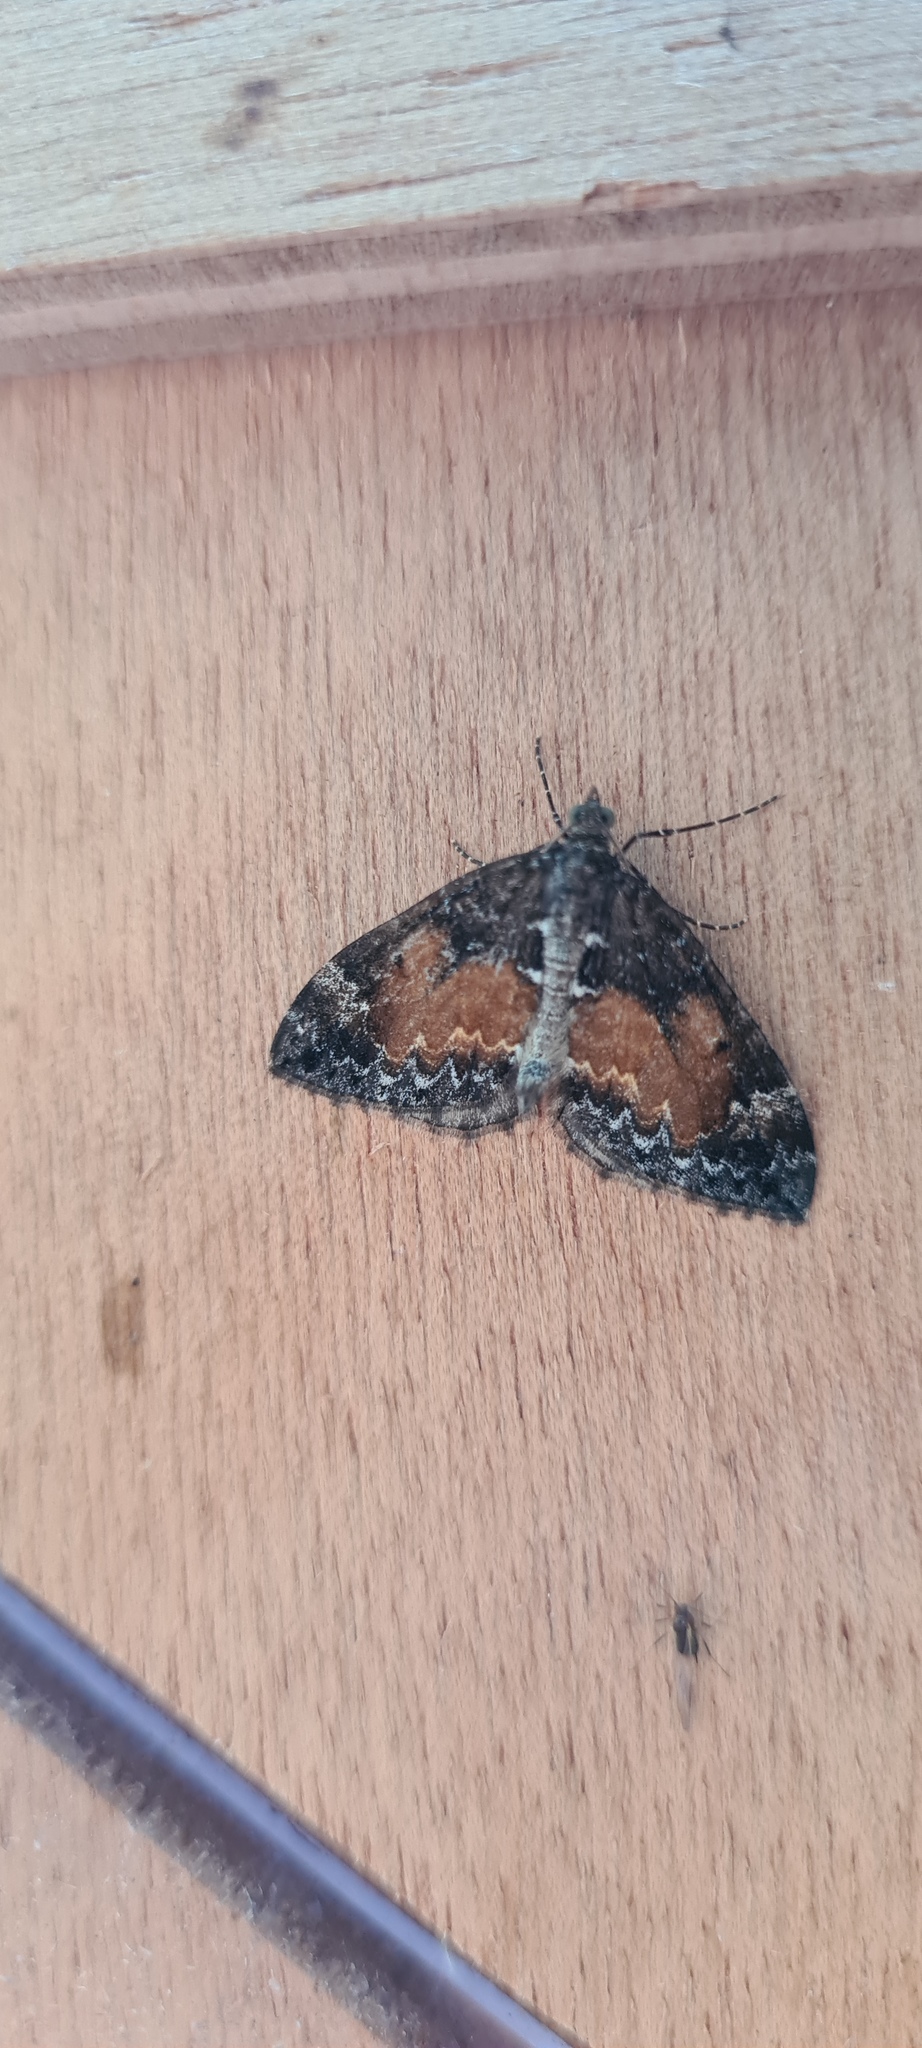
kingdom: Animalia
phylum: Arthropoda
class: Insecta
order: Lepidoptera
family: Geometridae
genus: Dysstroma
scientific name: Dysstroma truncata
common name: Common marbled carpet
